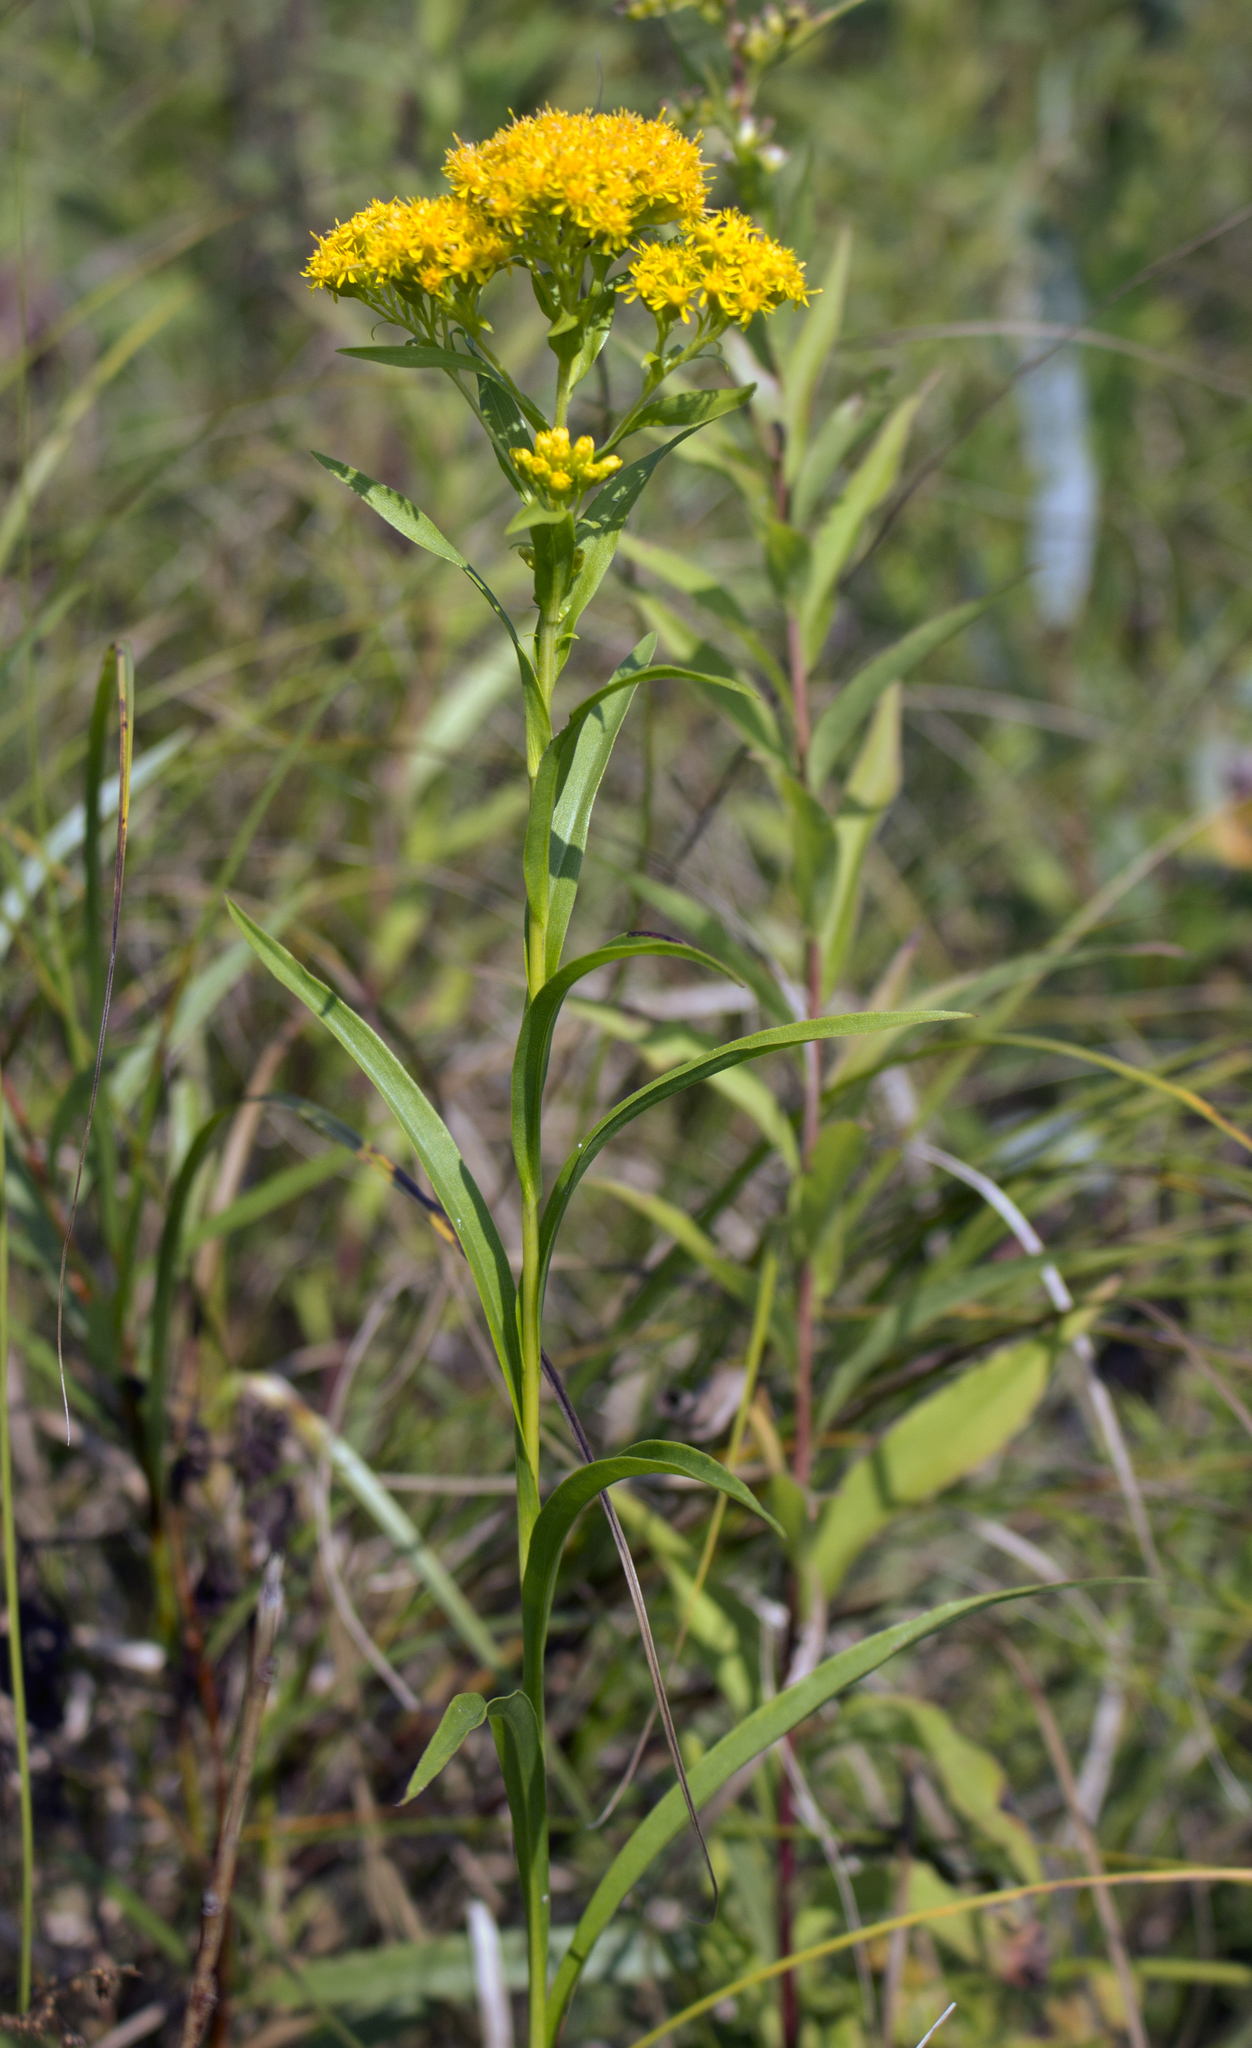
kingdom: Plantae
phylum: Tracheophyta
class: Magnoliopsida
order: Asterales
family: Asteraceae
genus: Solidago
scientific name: Solidago riddellii
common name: Riddell's goldenrod
